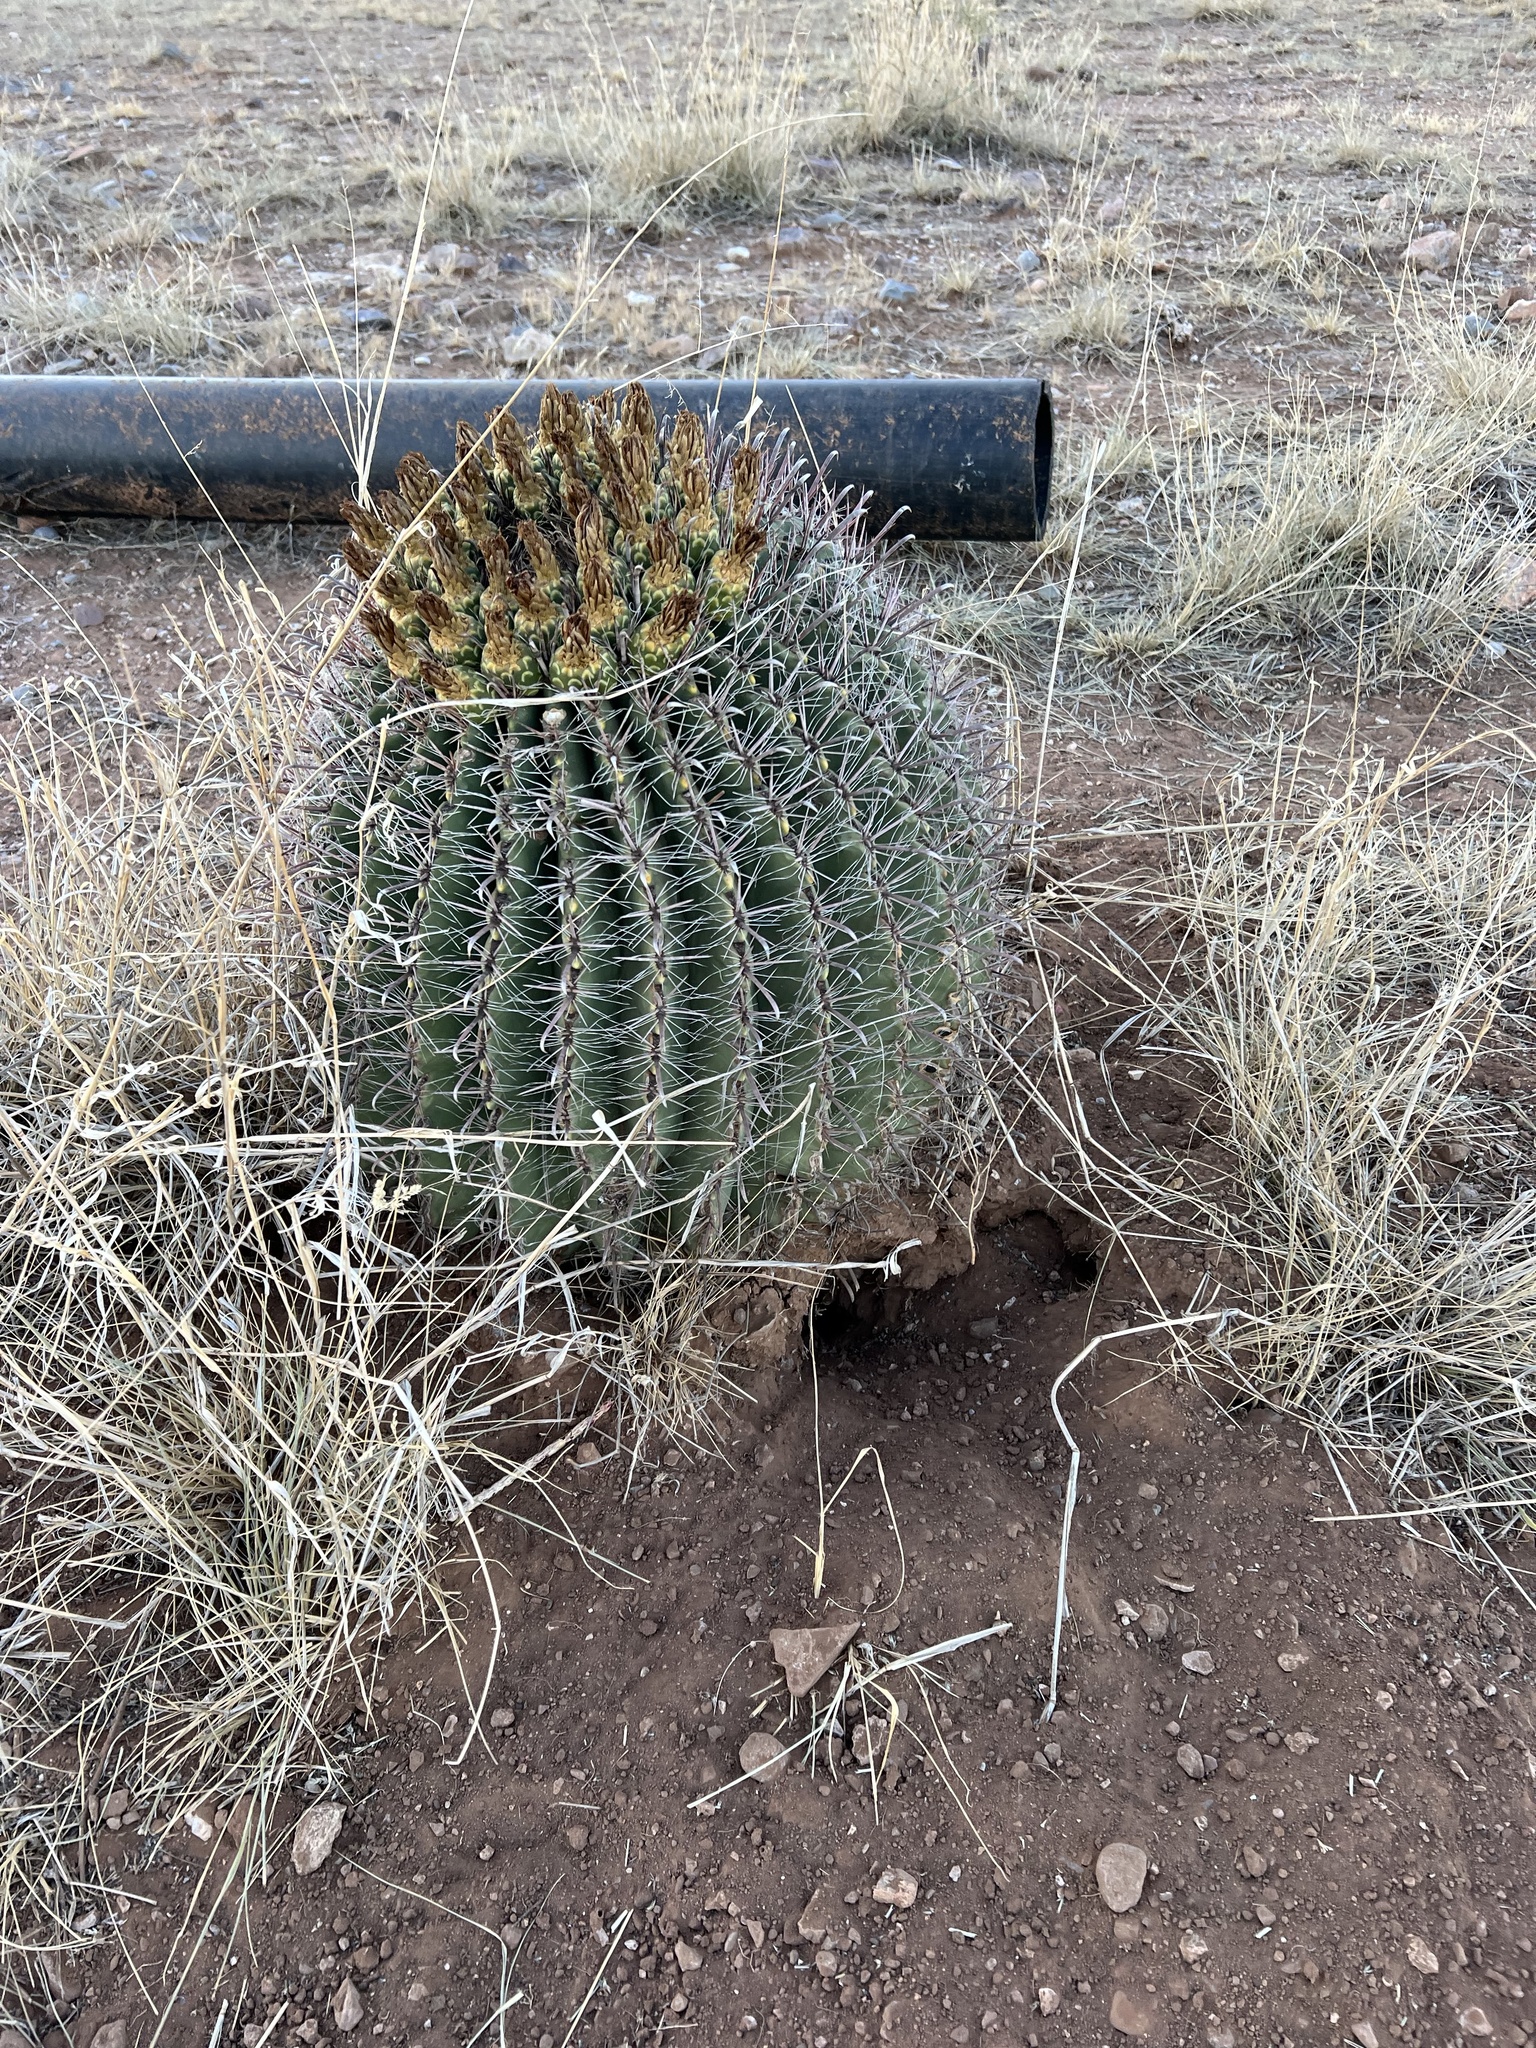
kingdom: Plantae
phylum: Tracheophyta
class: Magnoliopsida
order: Caryophyllales
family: Cactaceae
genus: Ferocactus
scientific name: Ferocactus wislizeni
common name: Candy barrel cactus
